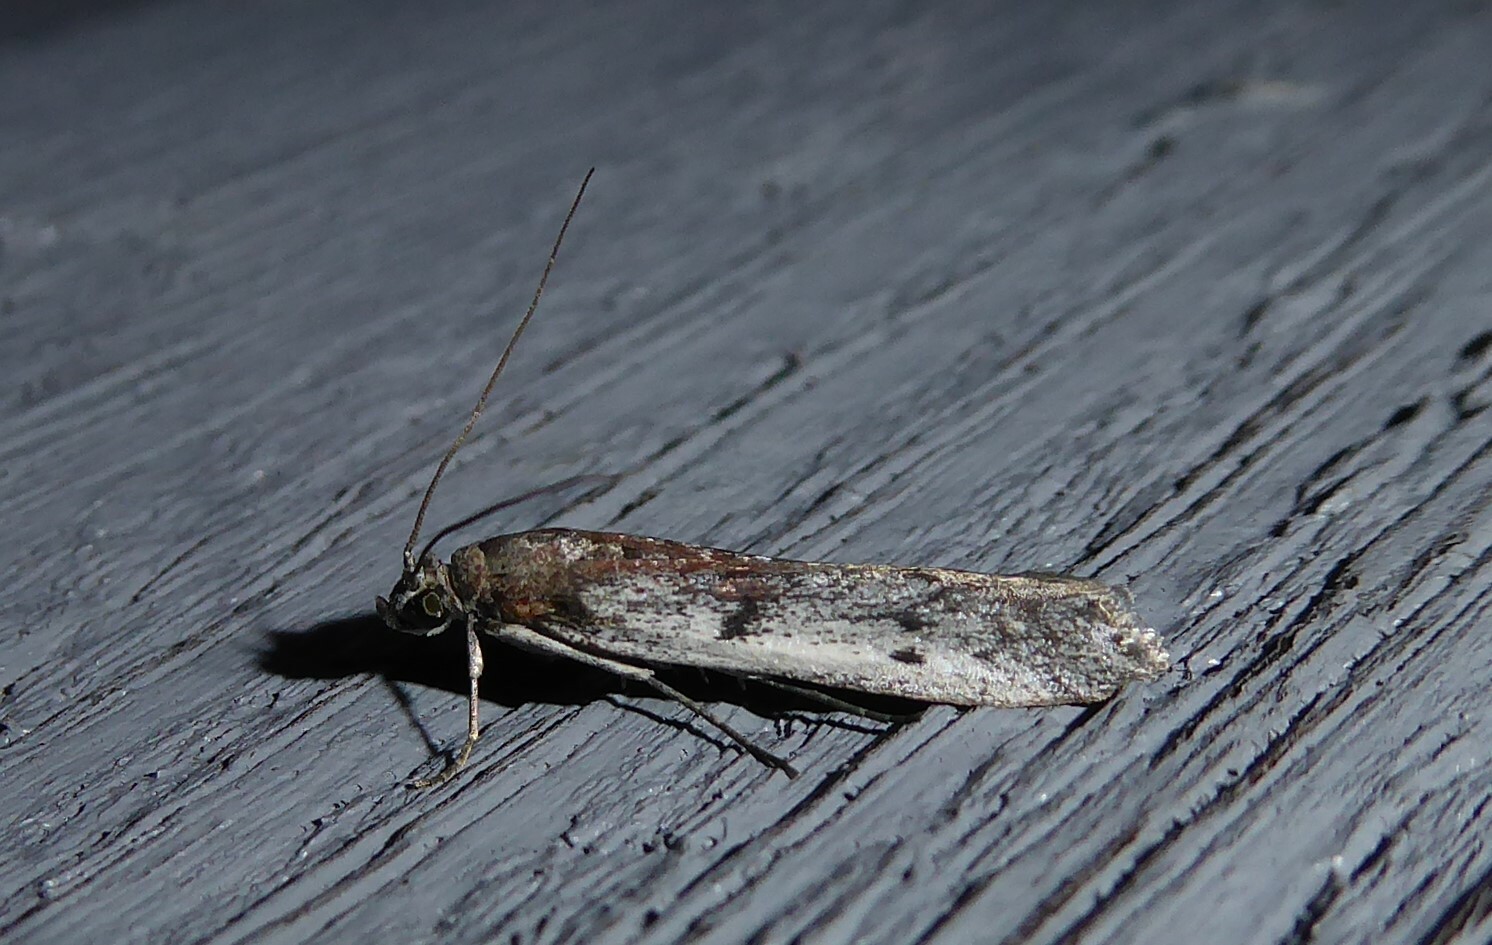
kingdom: Animalia
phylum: Arthropoda
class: Insecta
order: Lepidoptera
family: Pyralidae
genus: Patagoniodes
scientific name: Patagoniodes farinaria
